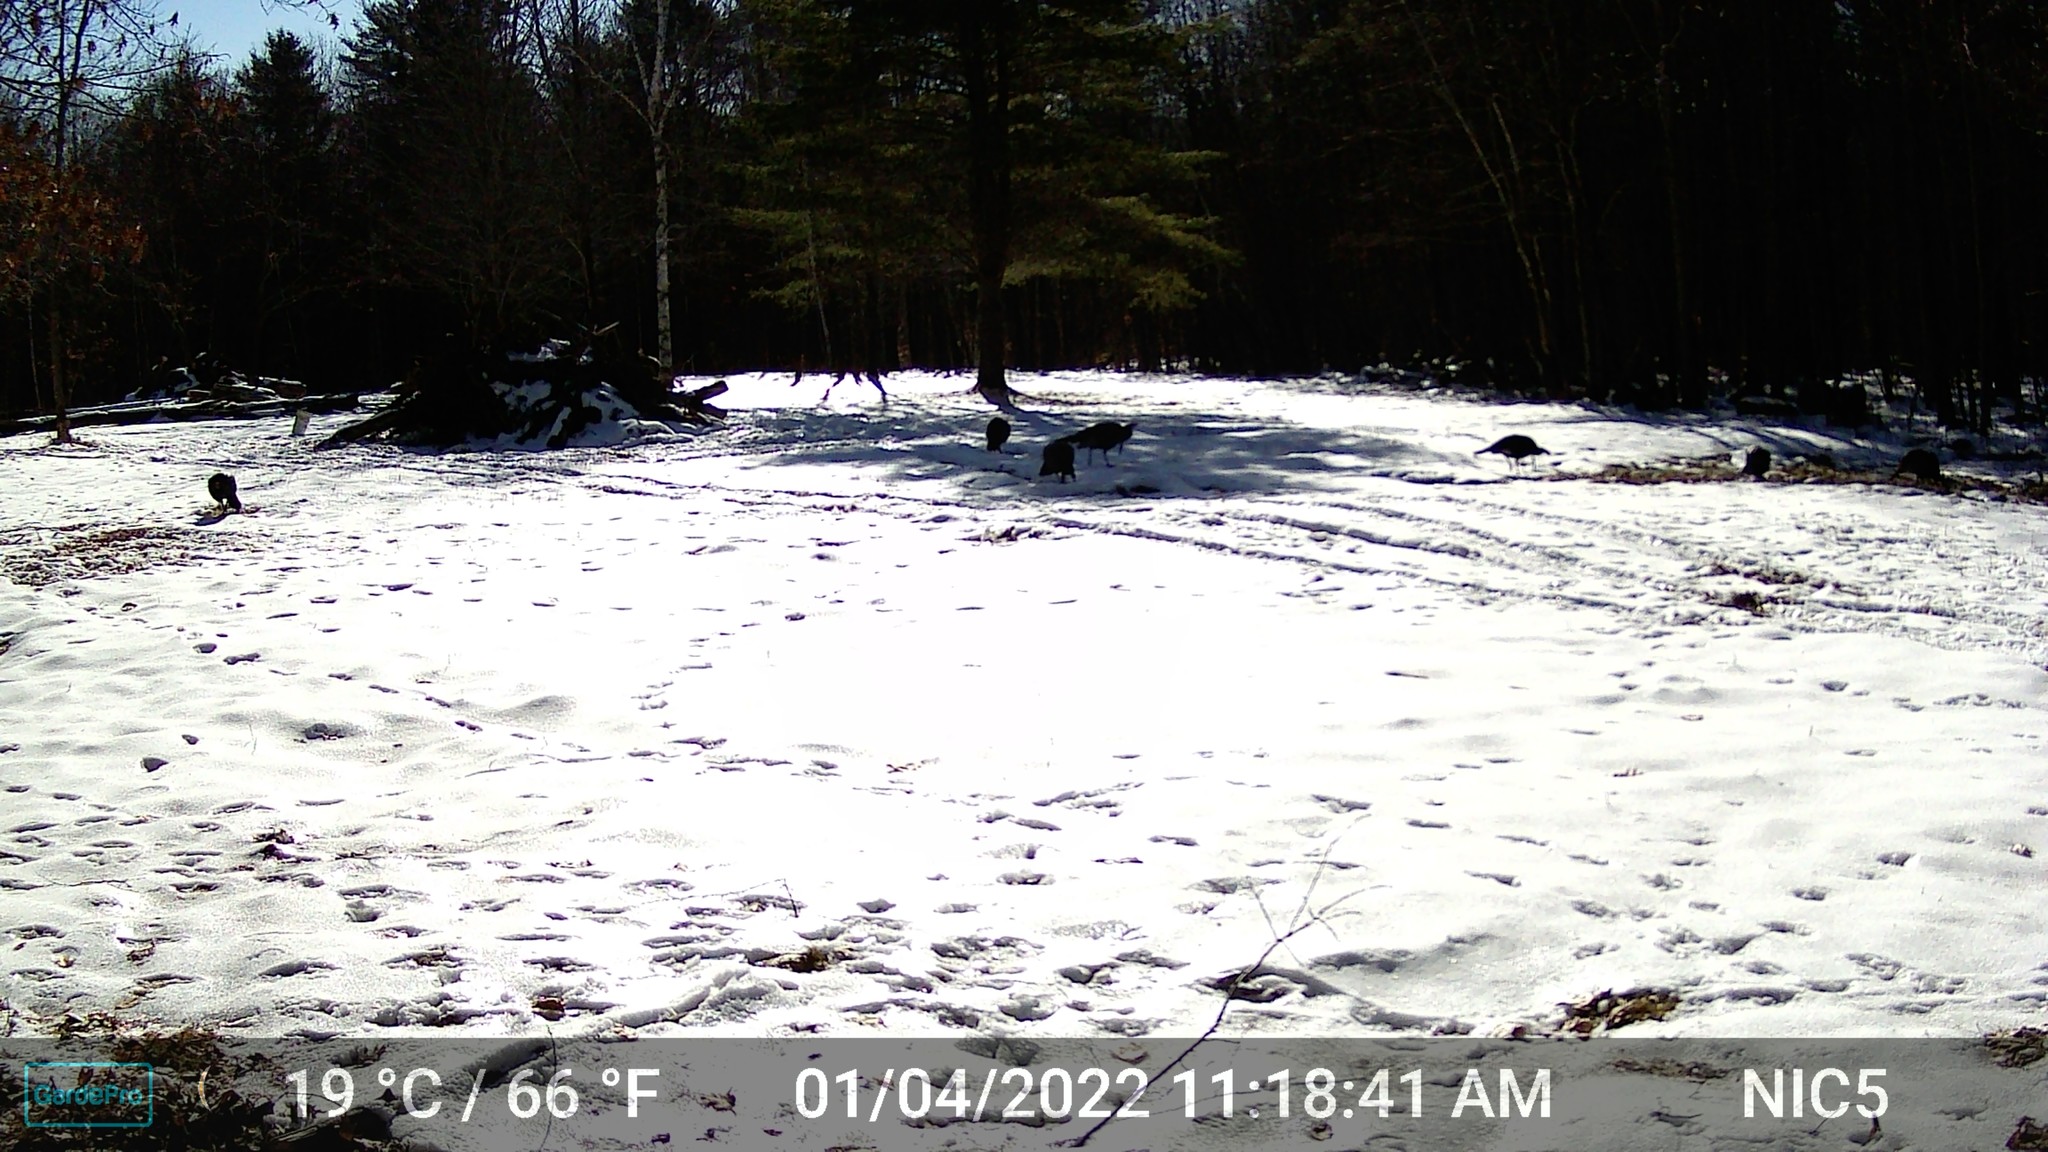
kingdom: Animalia
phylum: Chordata
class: Aves
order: Galliformes
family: Phasianidae
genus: Meleagris
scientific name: Meleagris gallopavo
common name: Wild turkey
